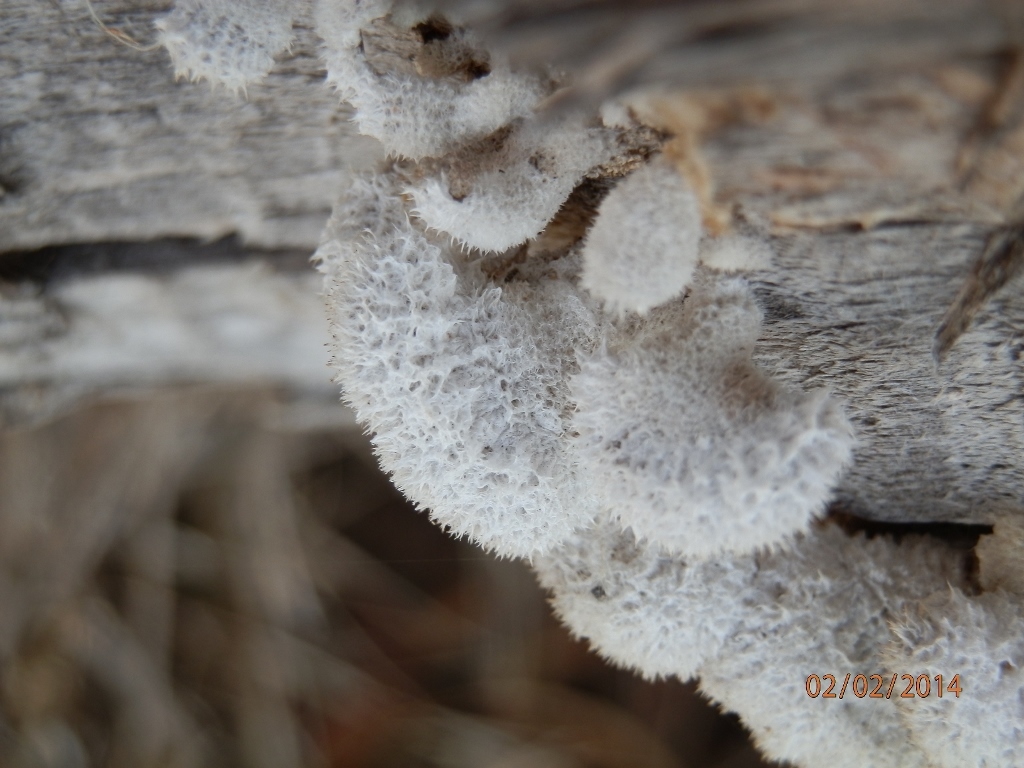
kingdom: Fungi
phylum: Basidiomycota
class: Agaricomycetes
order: Agaricales
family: Schizophyllaceae
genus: Schizophyllum
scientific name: Schizophyllum commune
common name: Common porecrust
